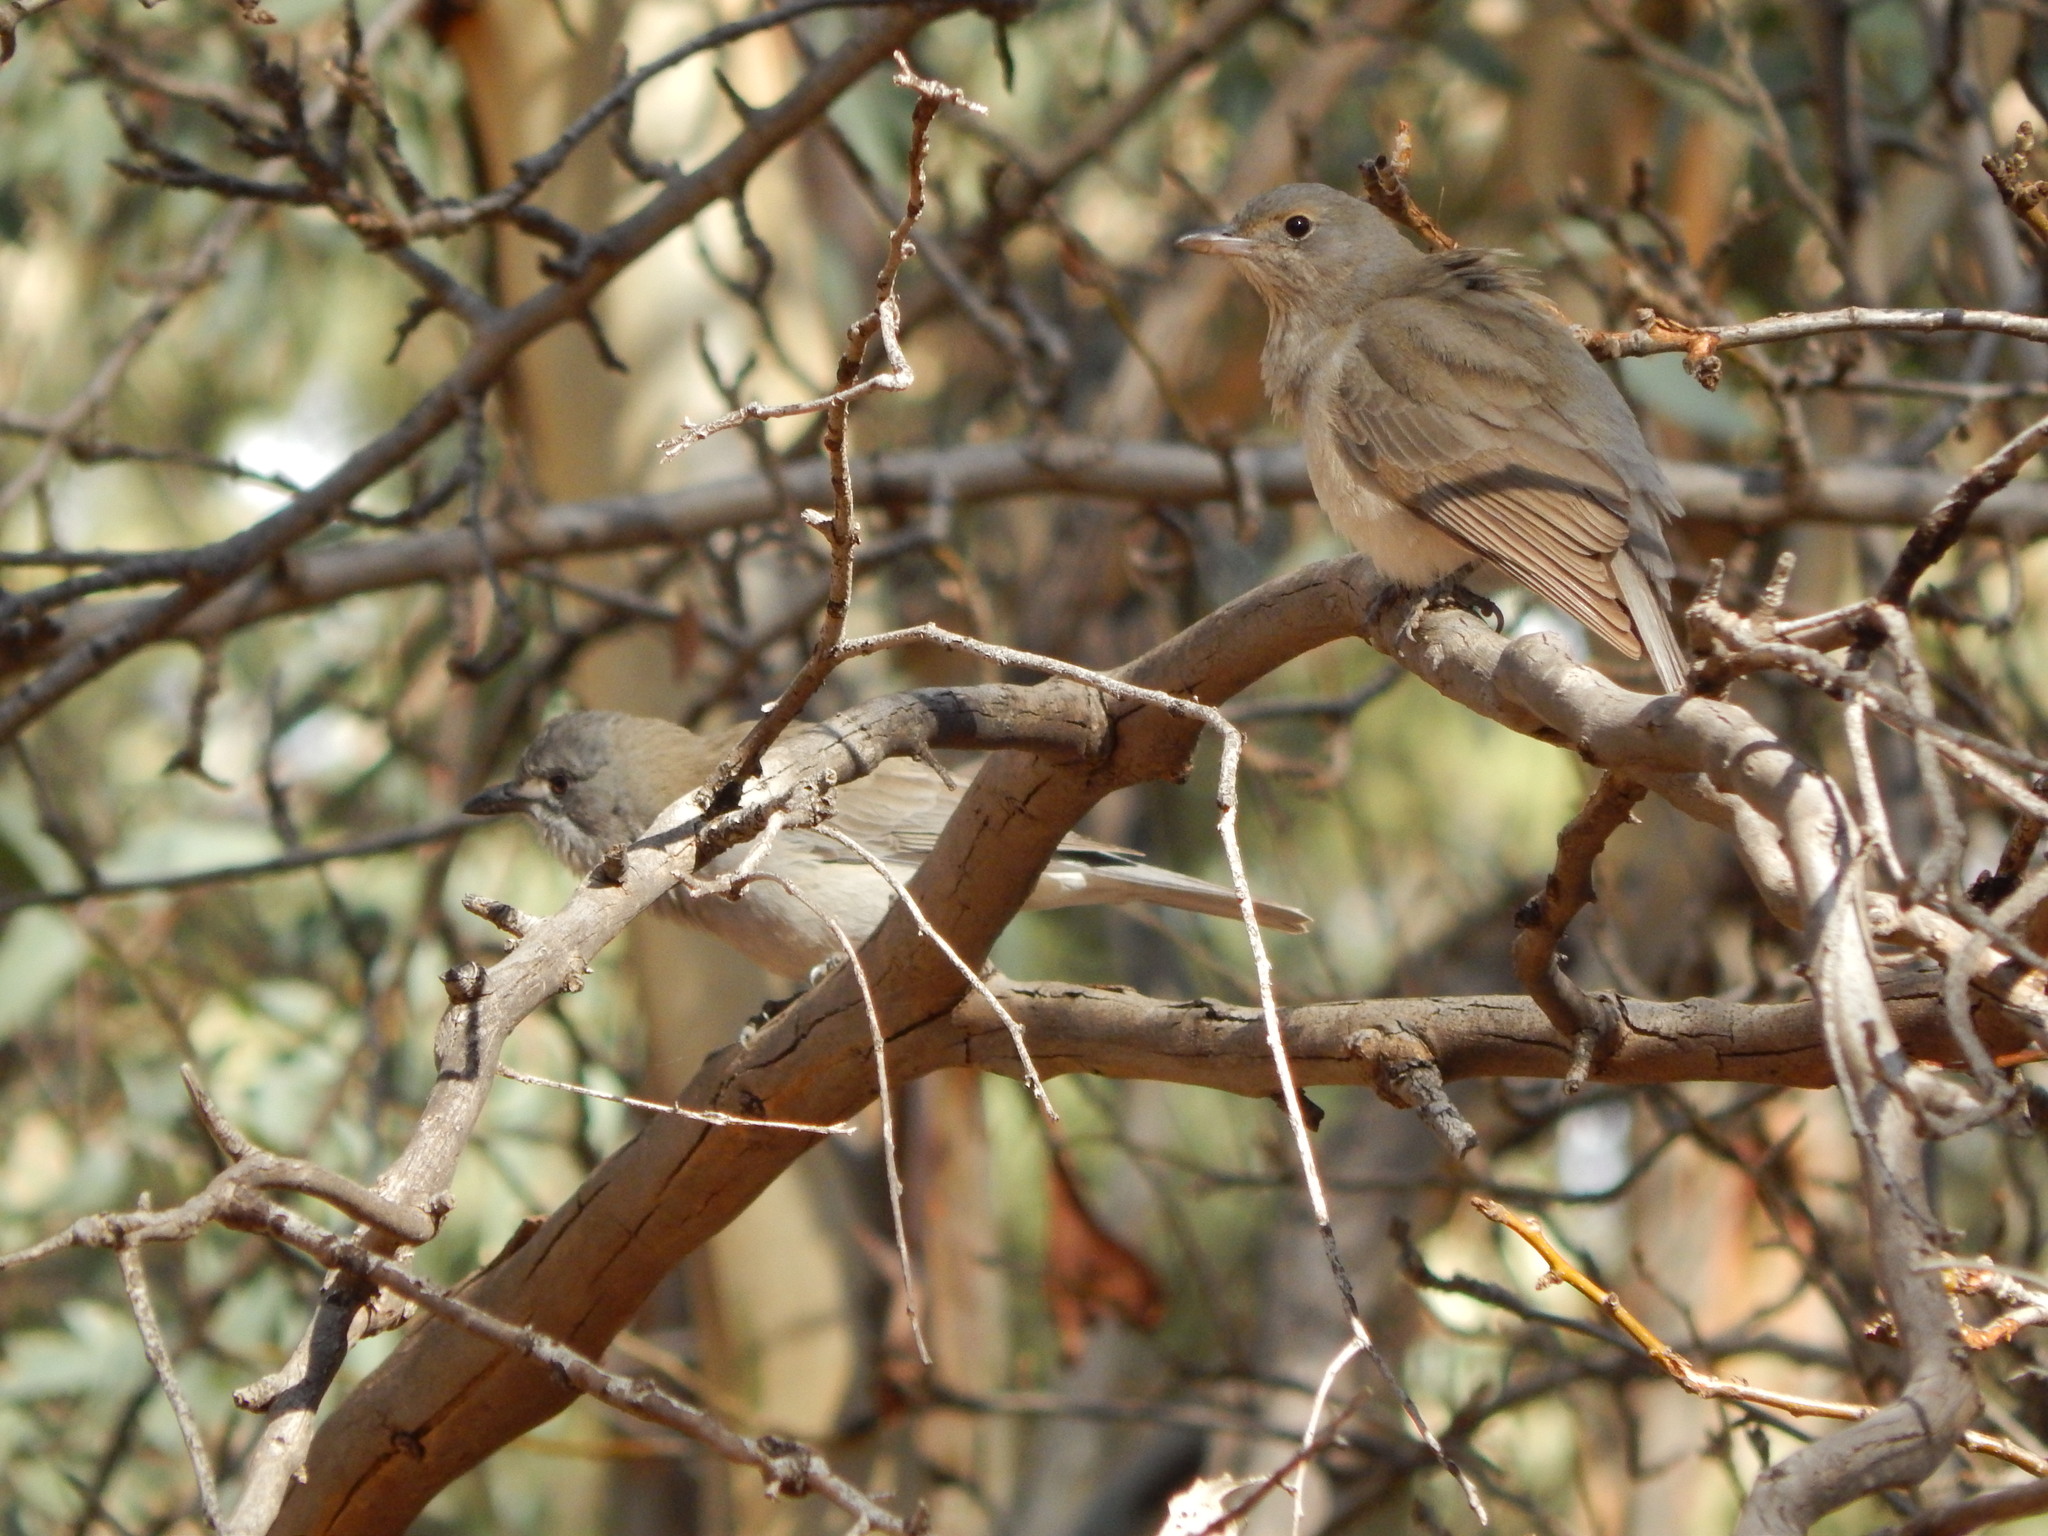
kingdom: Animalia
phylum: Chordata
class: Aves
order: Passeriformes
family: Pachycephalidae
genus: Colluricincla
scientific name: Colluricincla harmonica
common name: Grey shrikethrush
